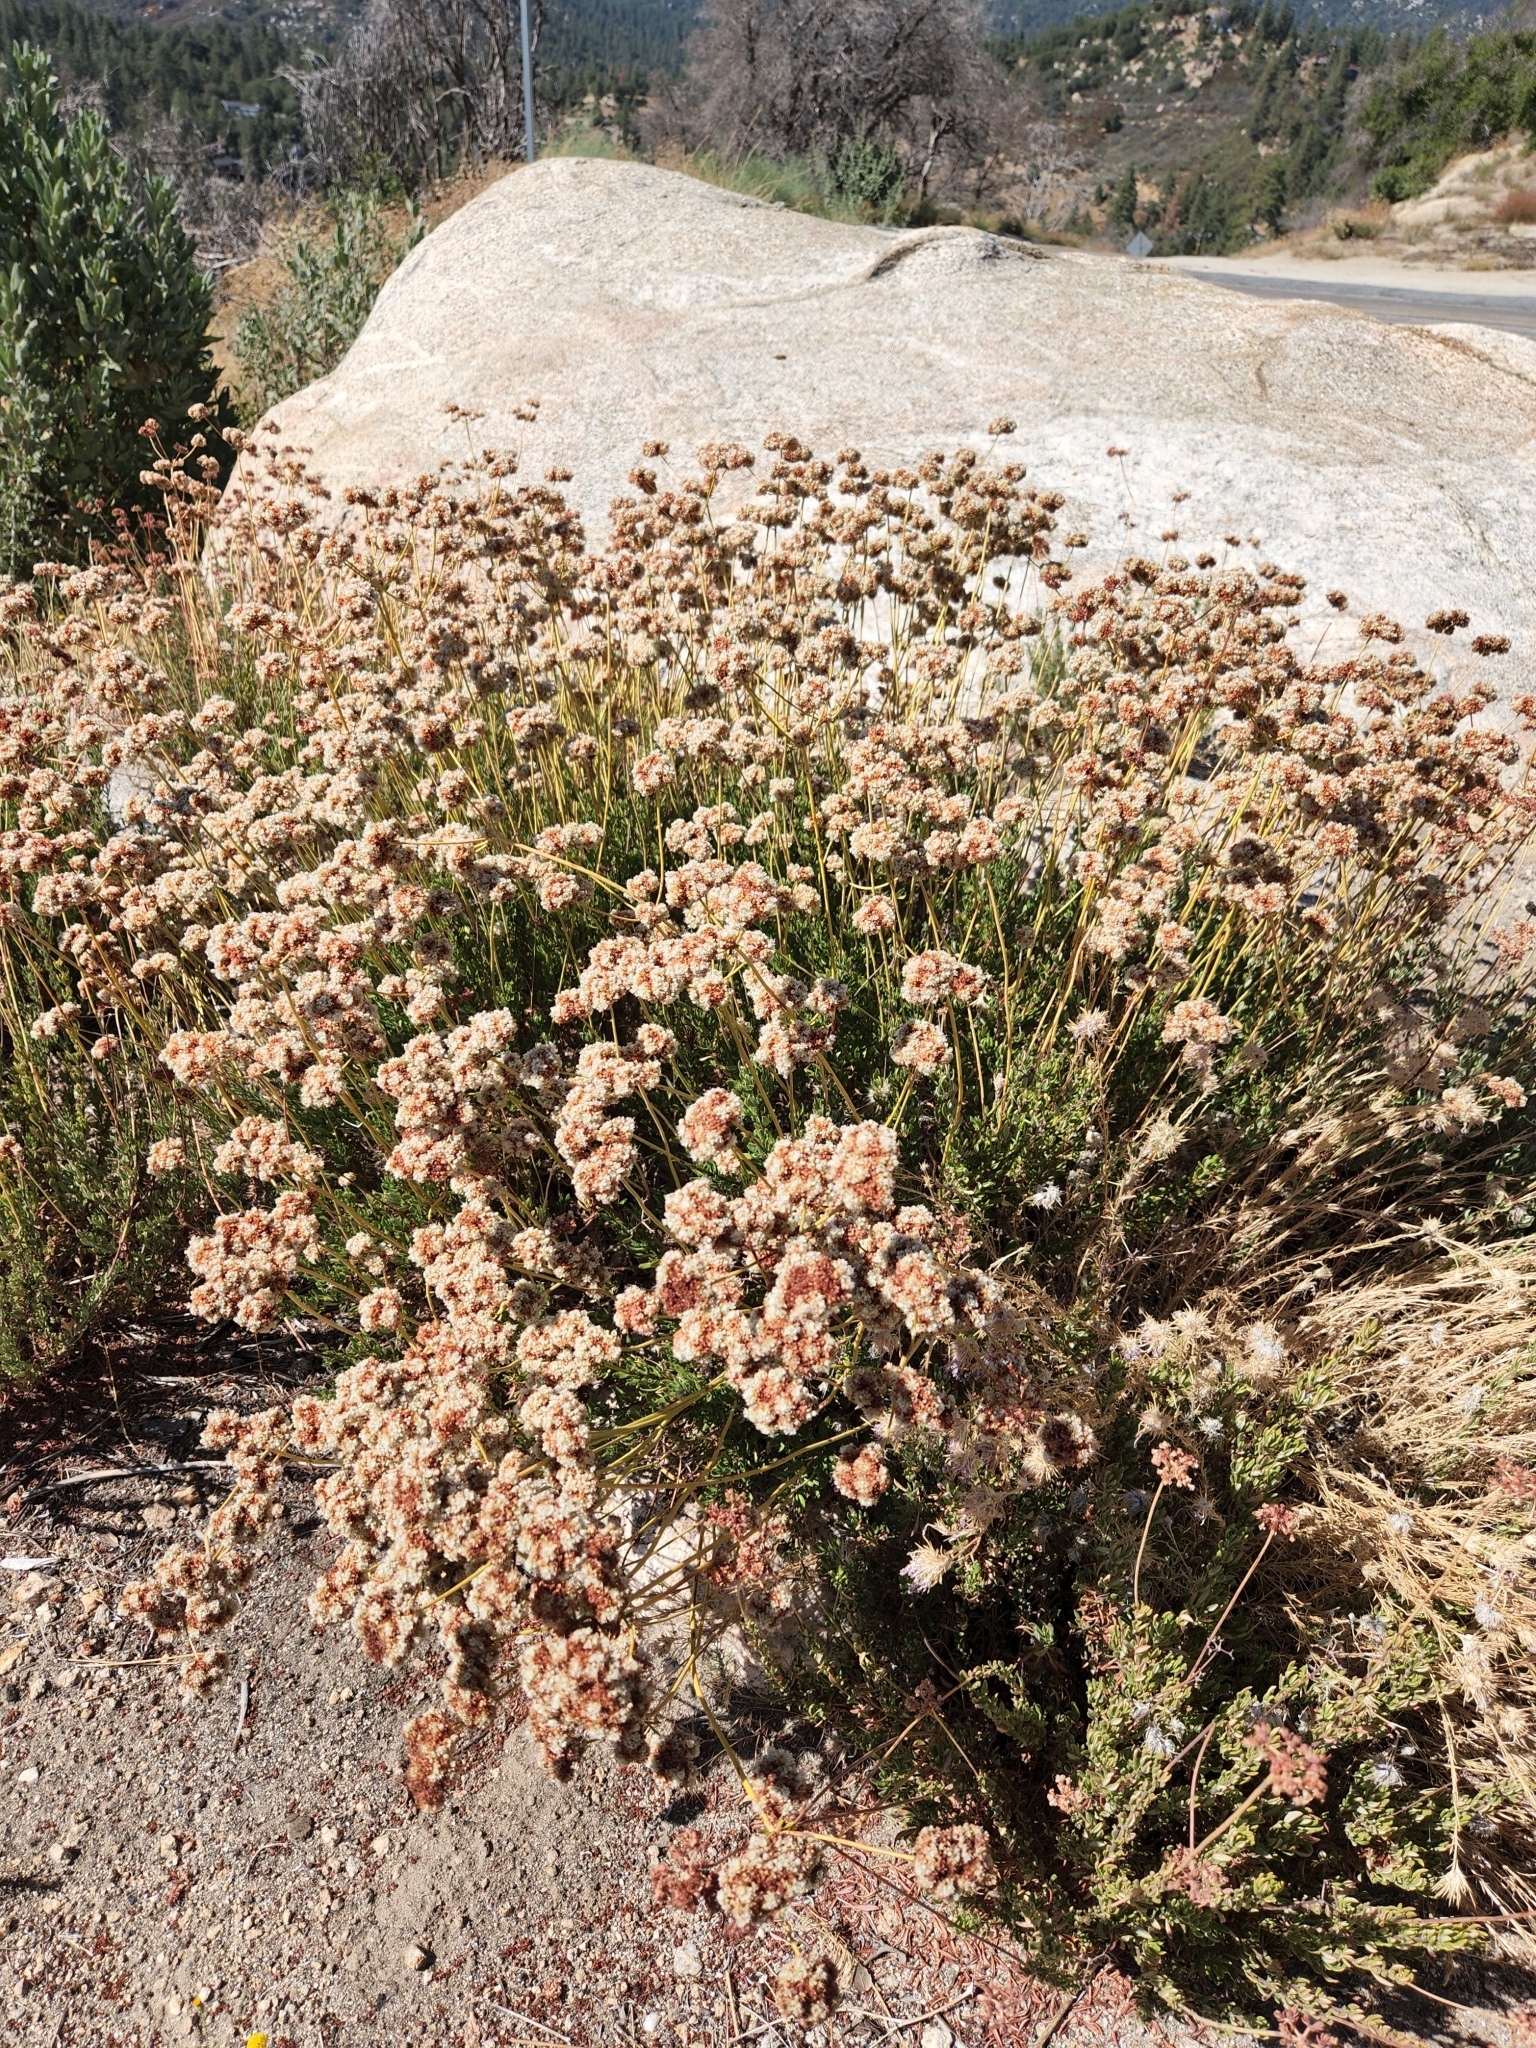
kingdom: Plantae
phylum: Tracheophyta
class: Magnoliopsida
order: Caryophyllales
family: Polygonaceae
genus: Eriogonum
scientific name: Eriogonum fasciculatum
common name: California wild buckwheat
